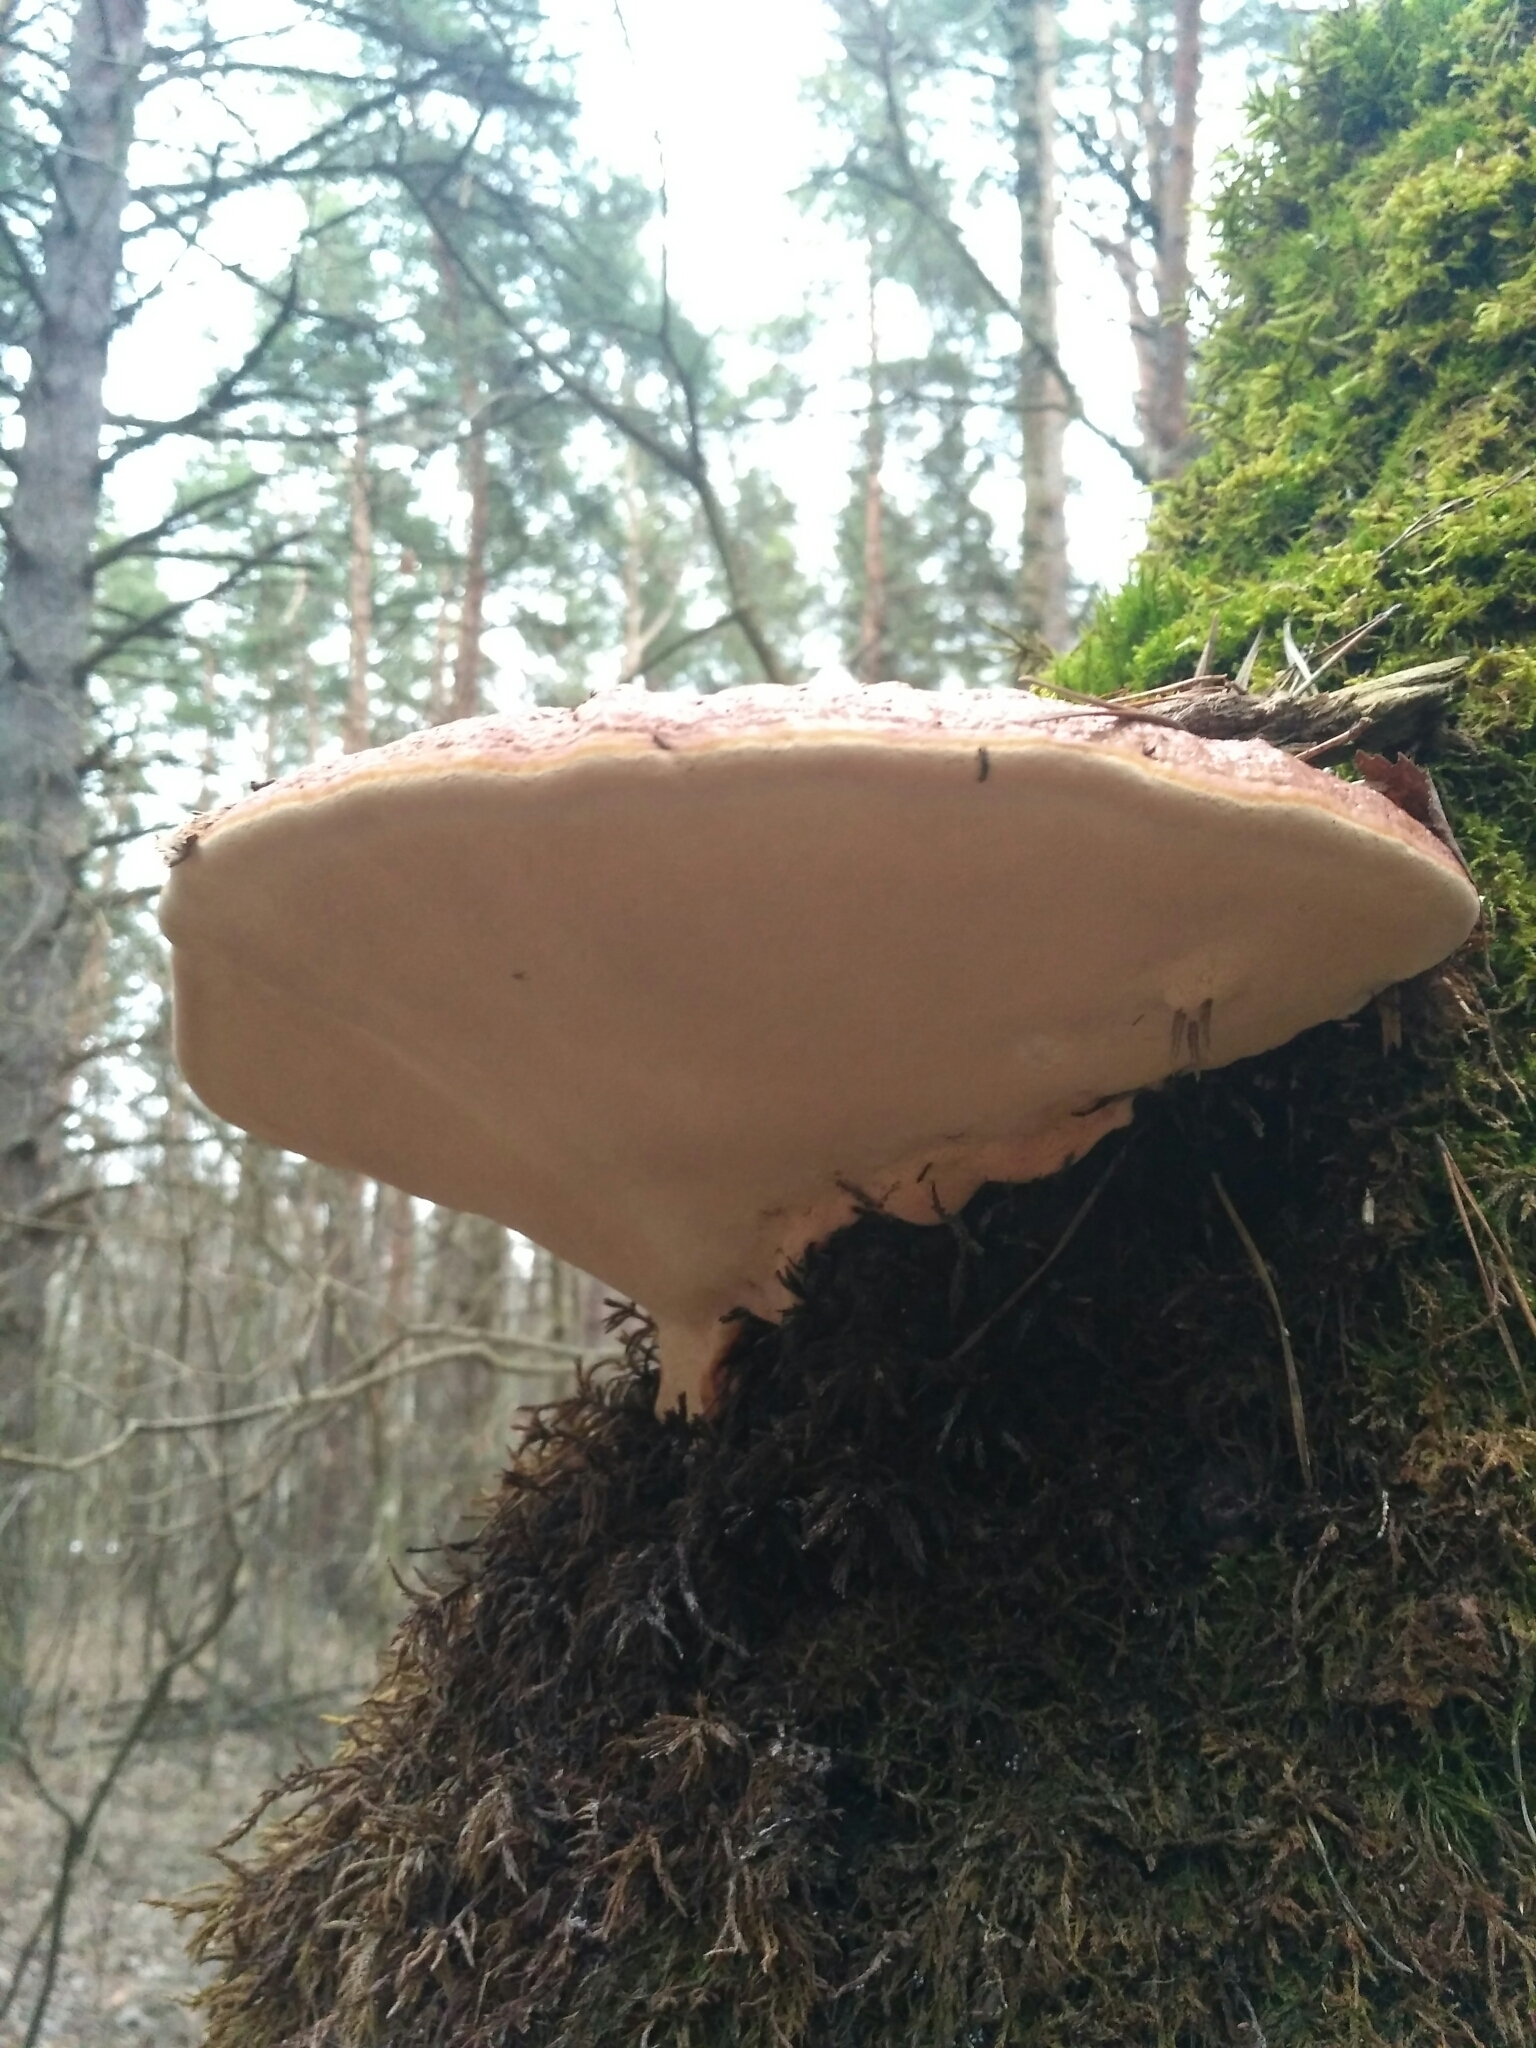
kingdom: Fungi
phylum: Basidiomycota
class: Agaricomycetes
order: Polyporales
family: Fomitopsidaceae
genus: Fomitopsis
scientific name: Fomitopsis pinicola
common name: Red-belted bracket
